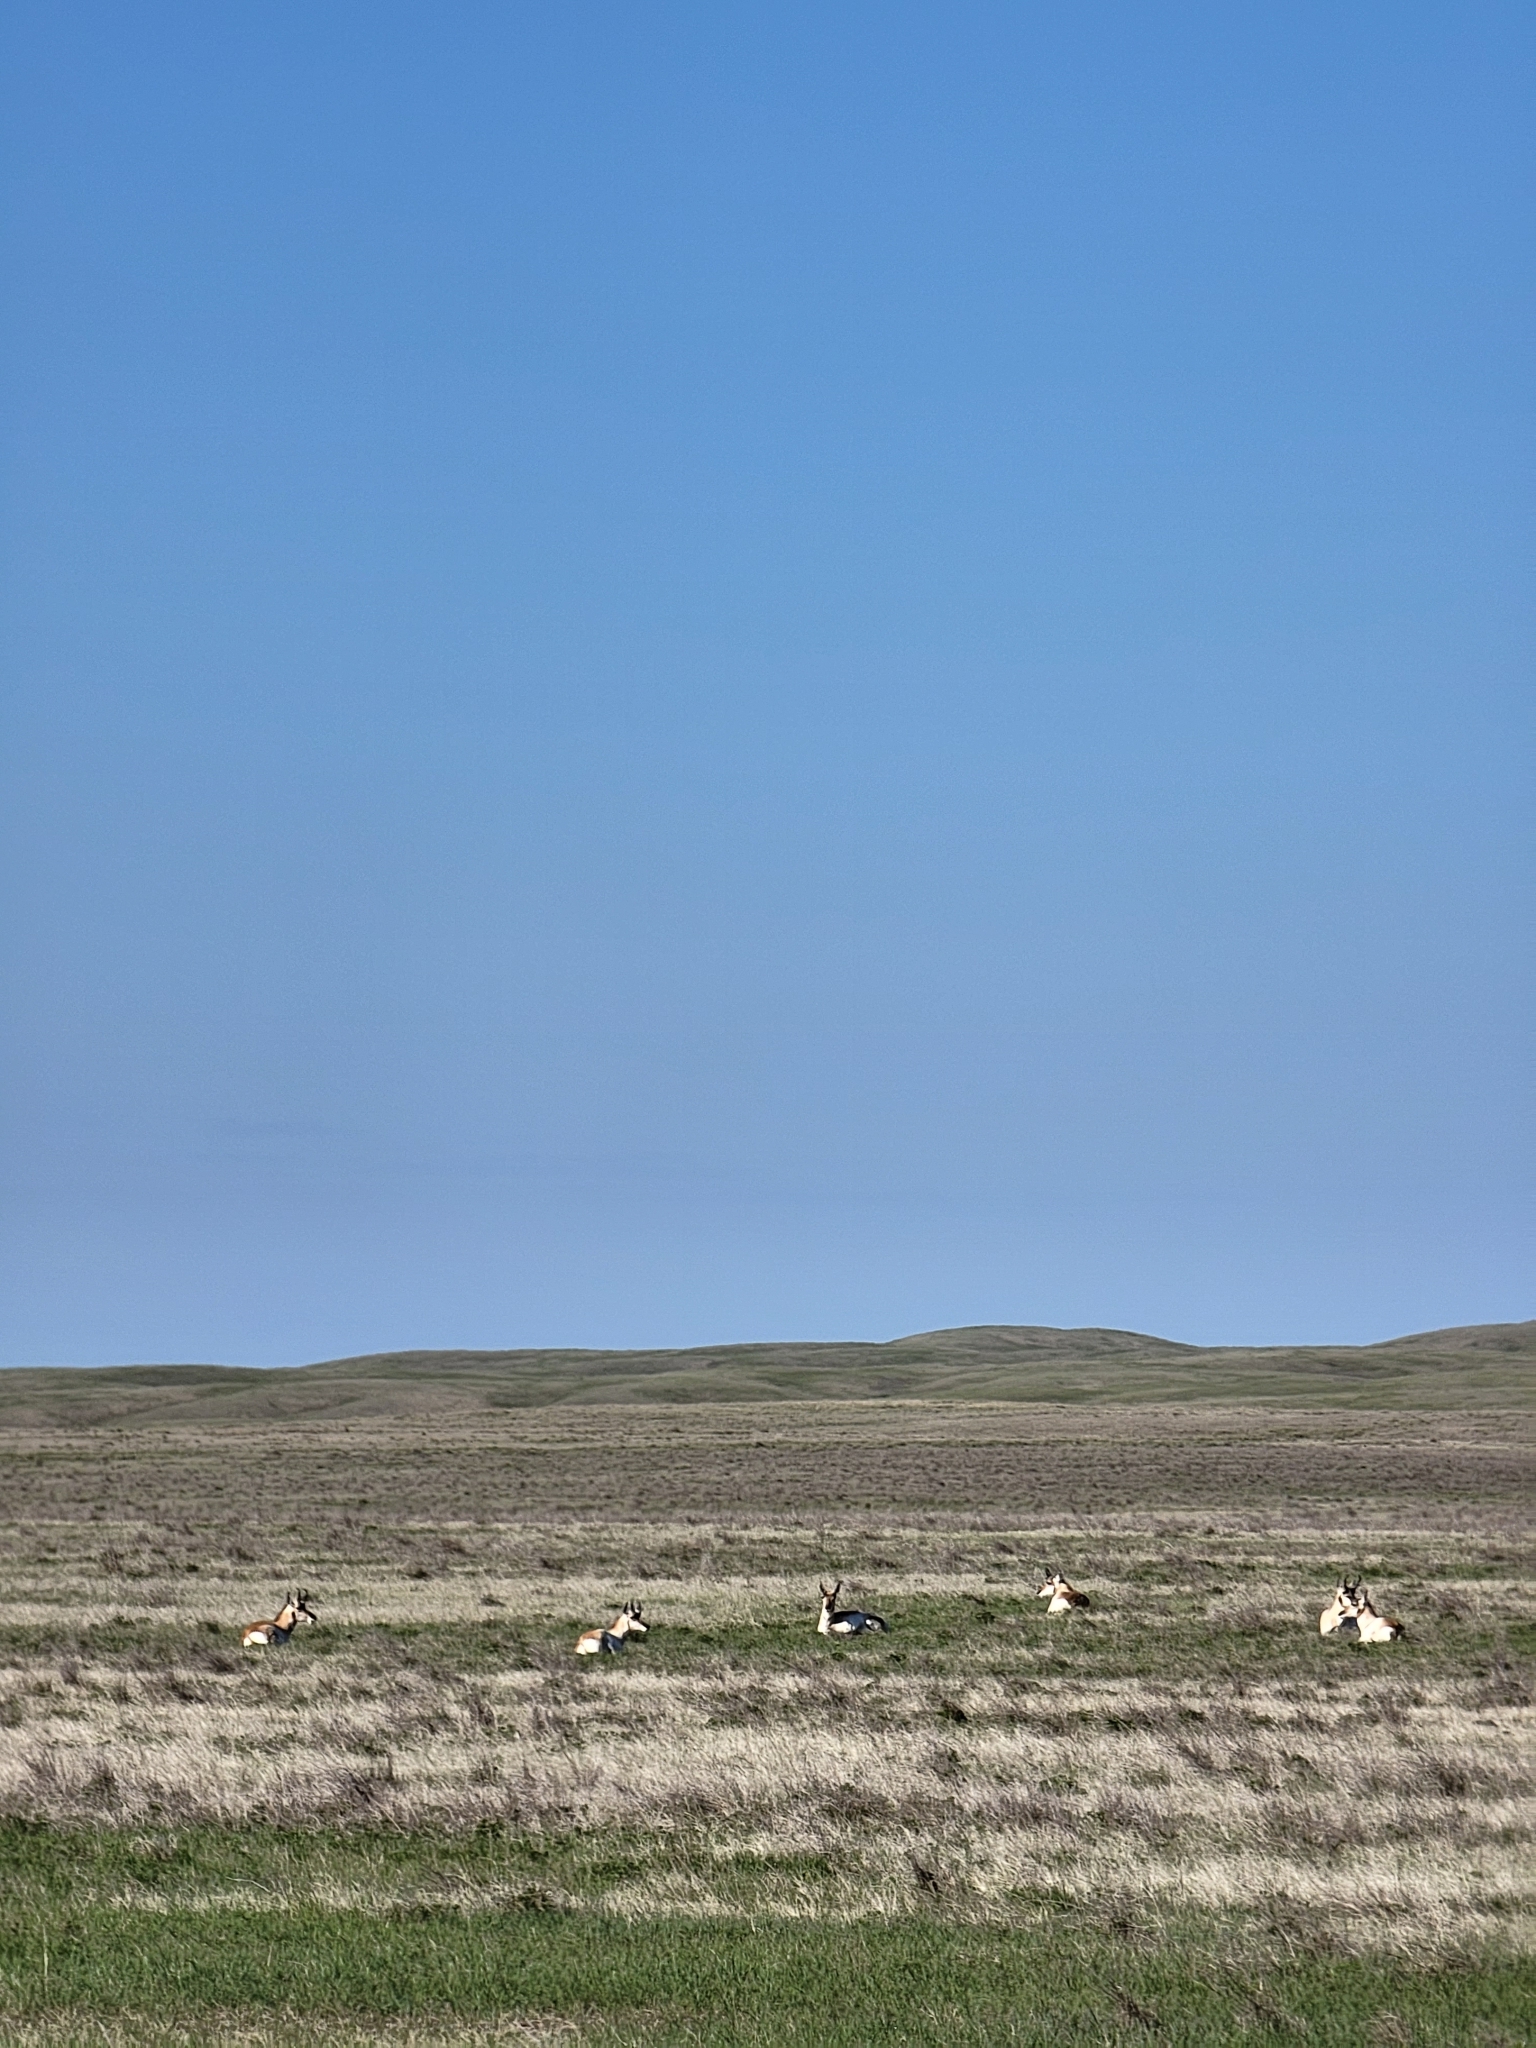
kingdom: Animalia
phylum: Chordata
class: Mammalia
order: Artiodactyla
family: Antilocapridae
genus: Antilocapra
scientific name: Antilocapra americana
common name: Pronghorn
